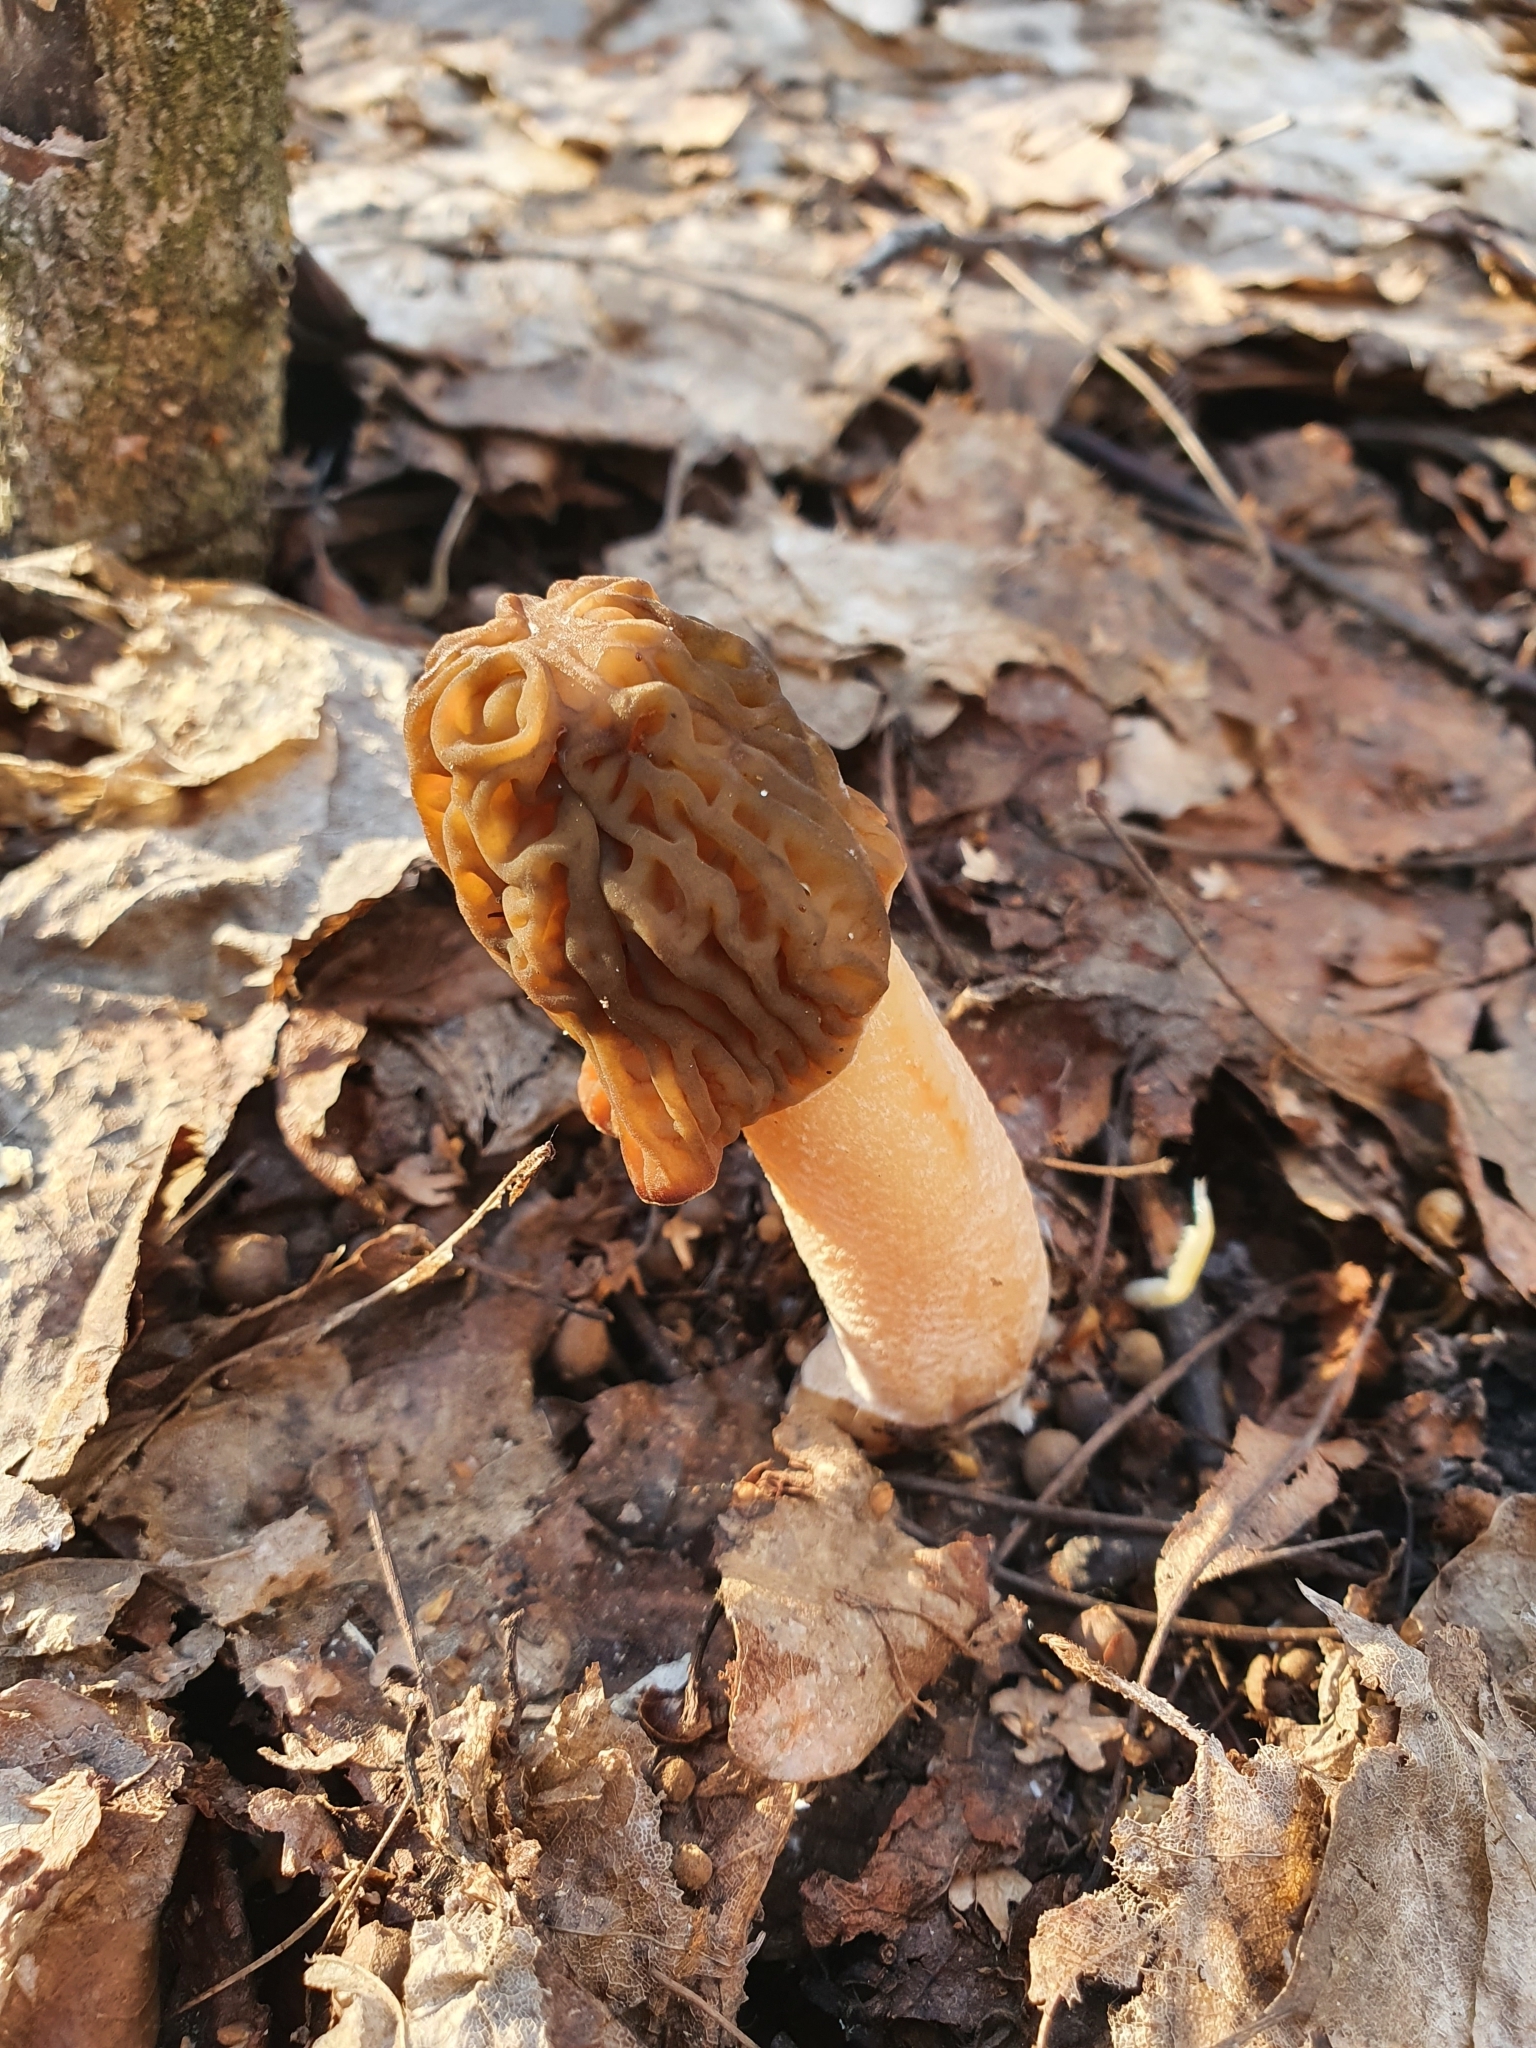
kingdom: Fungi
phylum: Ascomycota
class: Pezizomycetes
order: Pezizales
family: Morchellaceae
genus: Verpa
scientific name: Verpa bohemica
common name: Wrinkled thimble morel
